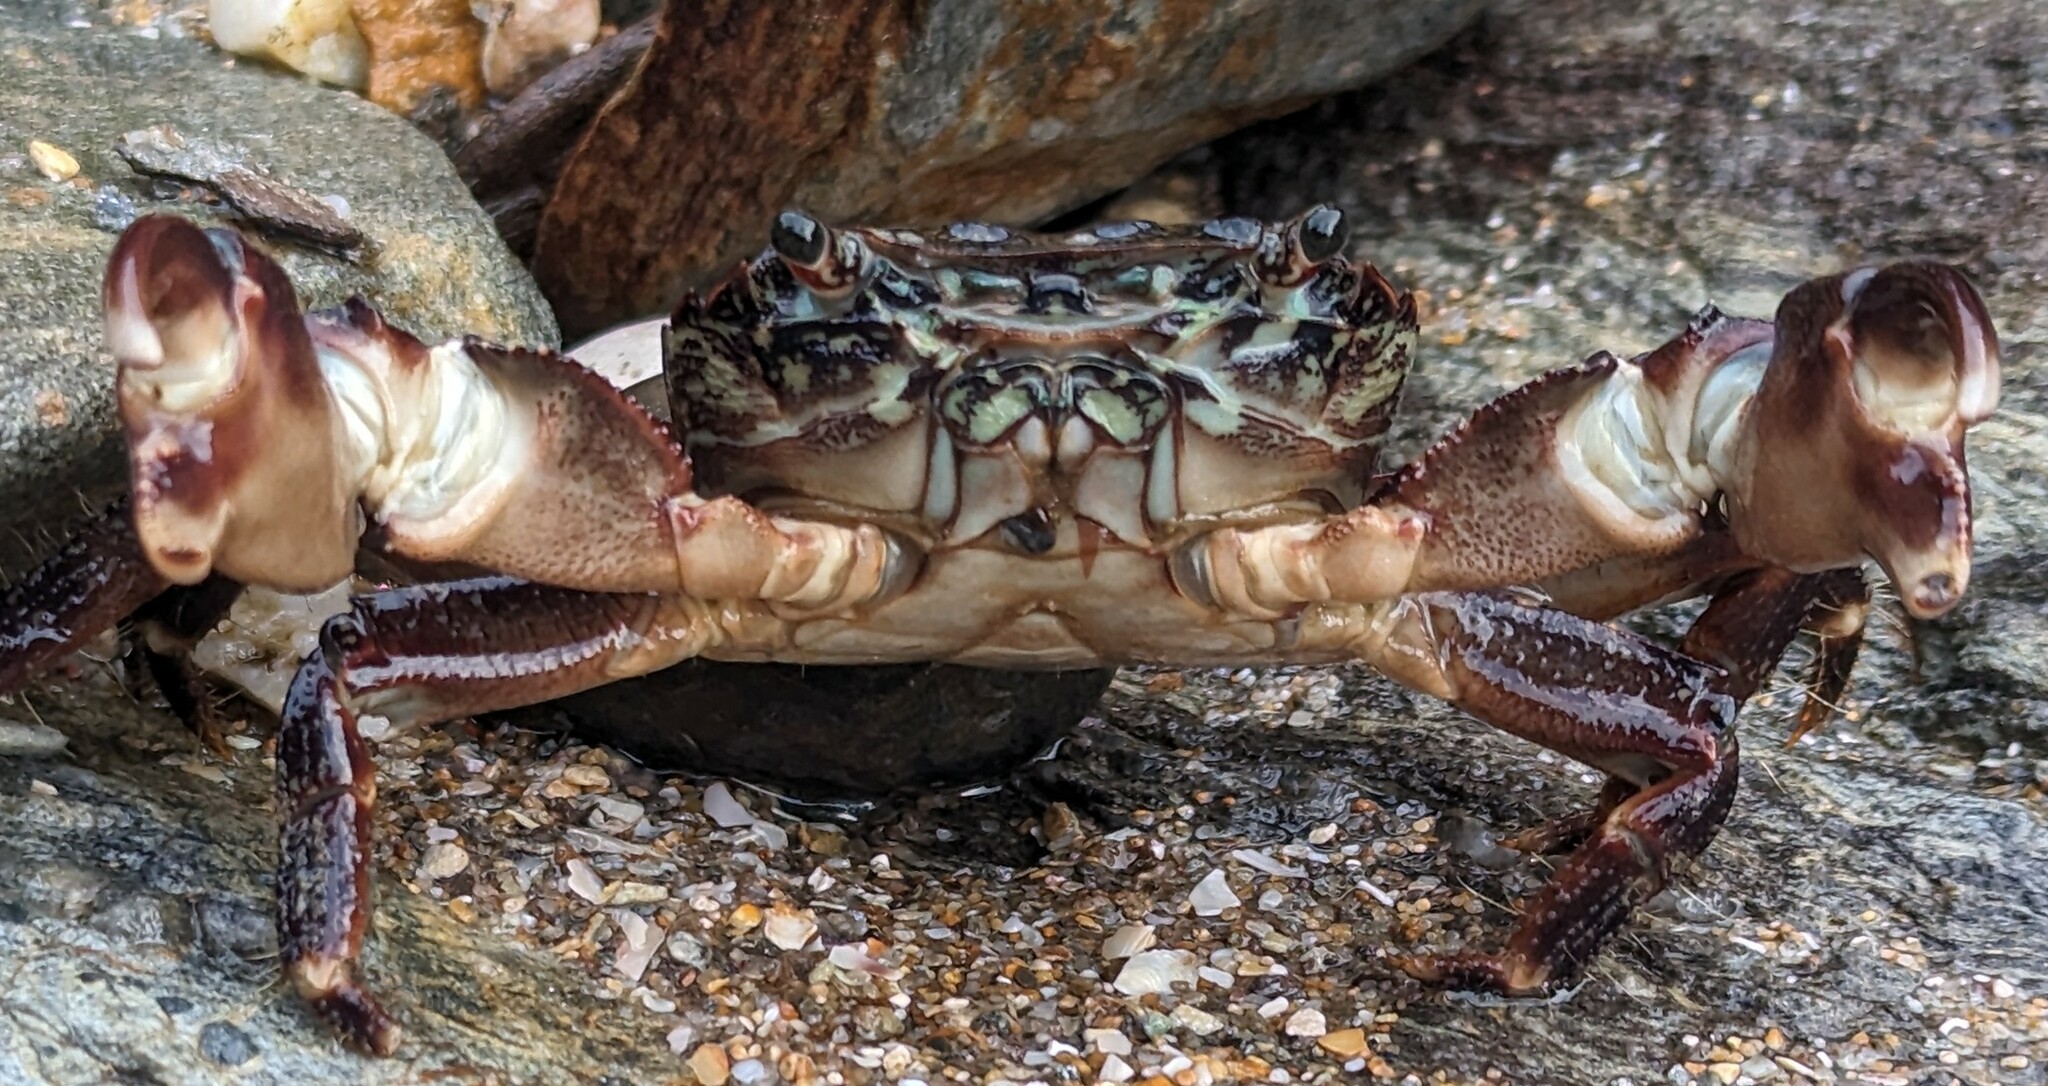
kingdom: Animalia
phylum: Arthropoda
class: Malacostraca
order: Decapoda
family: Grapsidae
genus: Pachygrapsus
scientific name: Pachygrapsus marmoratus
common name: Marbled rock crab
